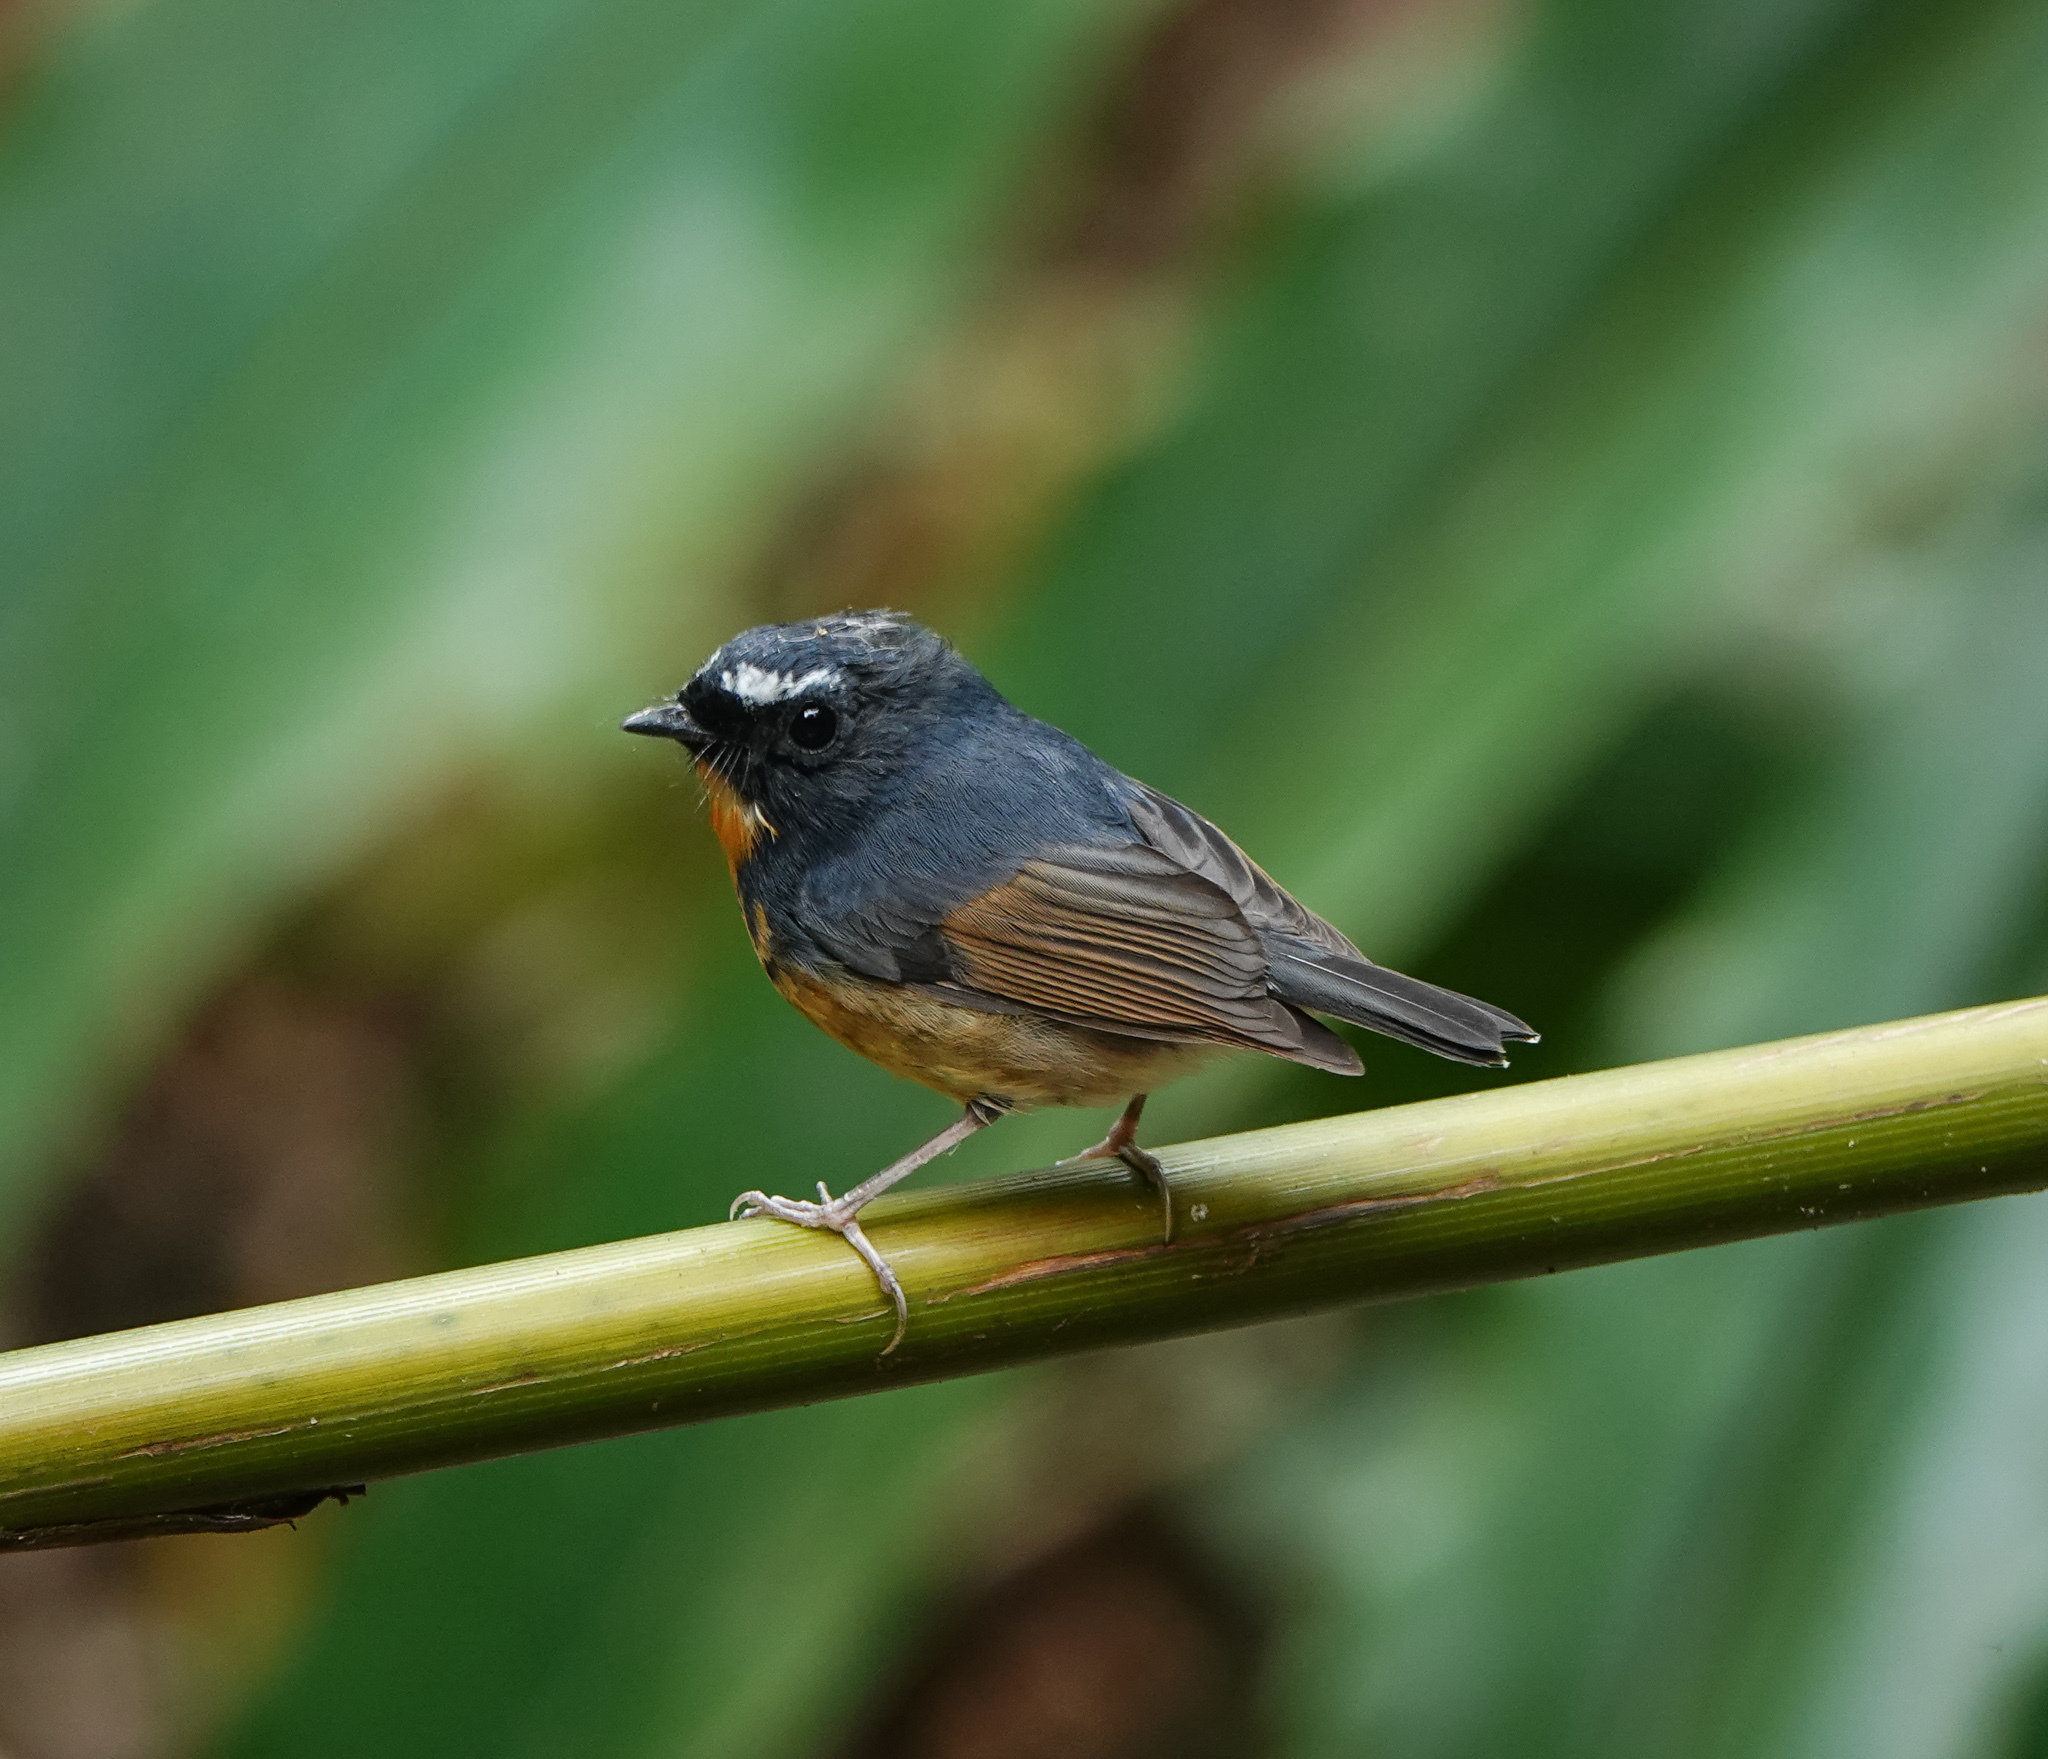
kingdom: Animalia
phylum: Chordata
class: Aves
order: Passeriformes
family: Muscicapidae
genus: Ficedula
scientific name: Ficedula hyperythra
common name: Snowy-browed flycatcher
